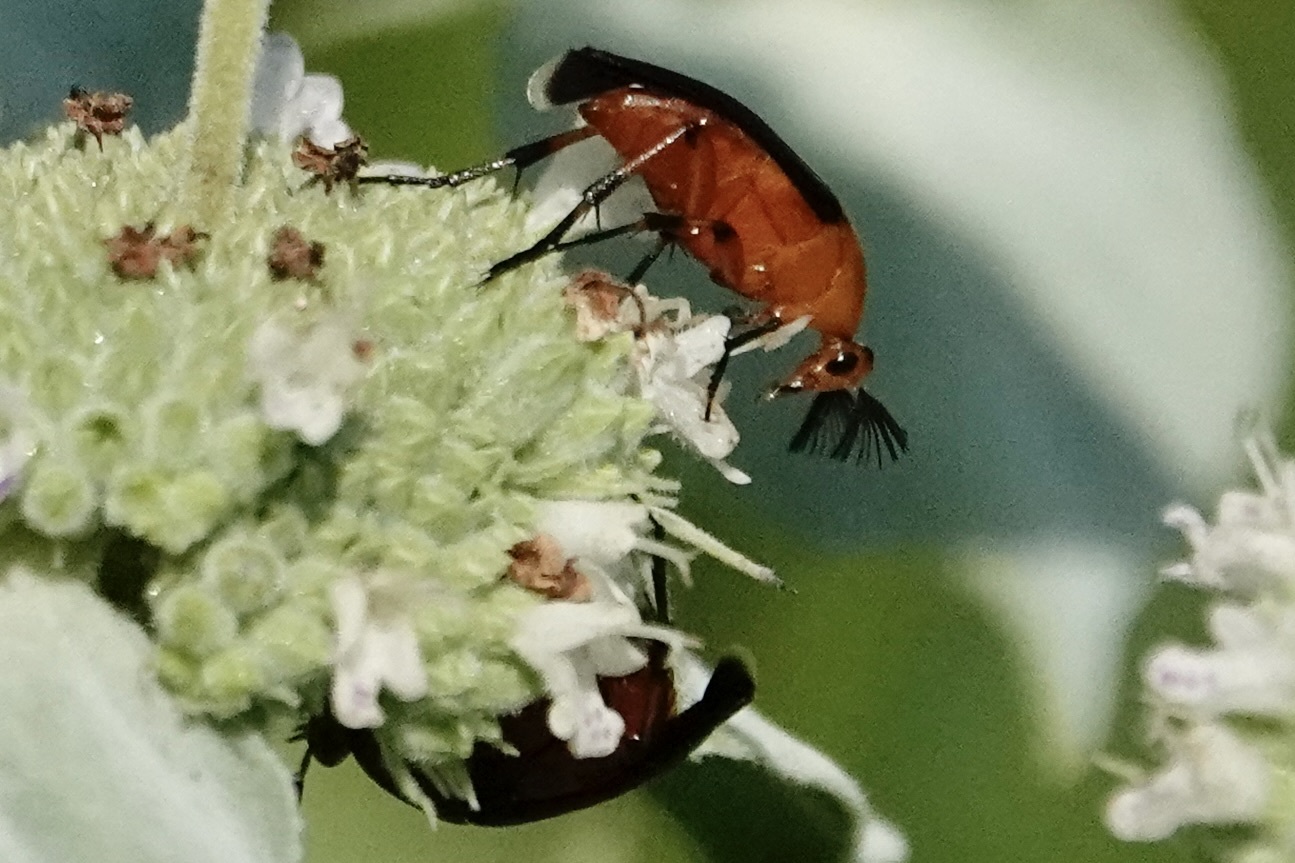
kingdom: Animalia
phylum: Arthropoda
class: Insecta
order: Coleoptera
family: Ripiphoridae
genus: Macrosiagon
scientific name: Macrosiagon limbatum
